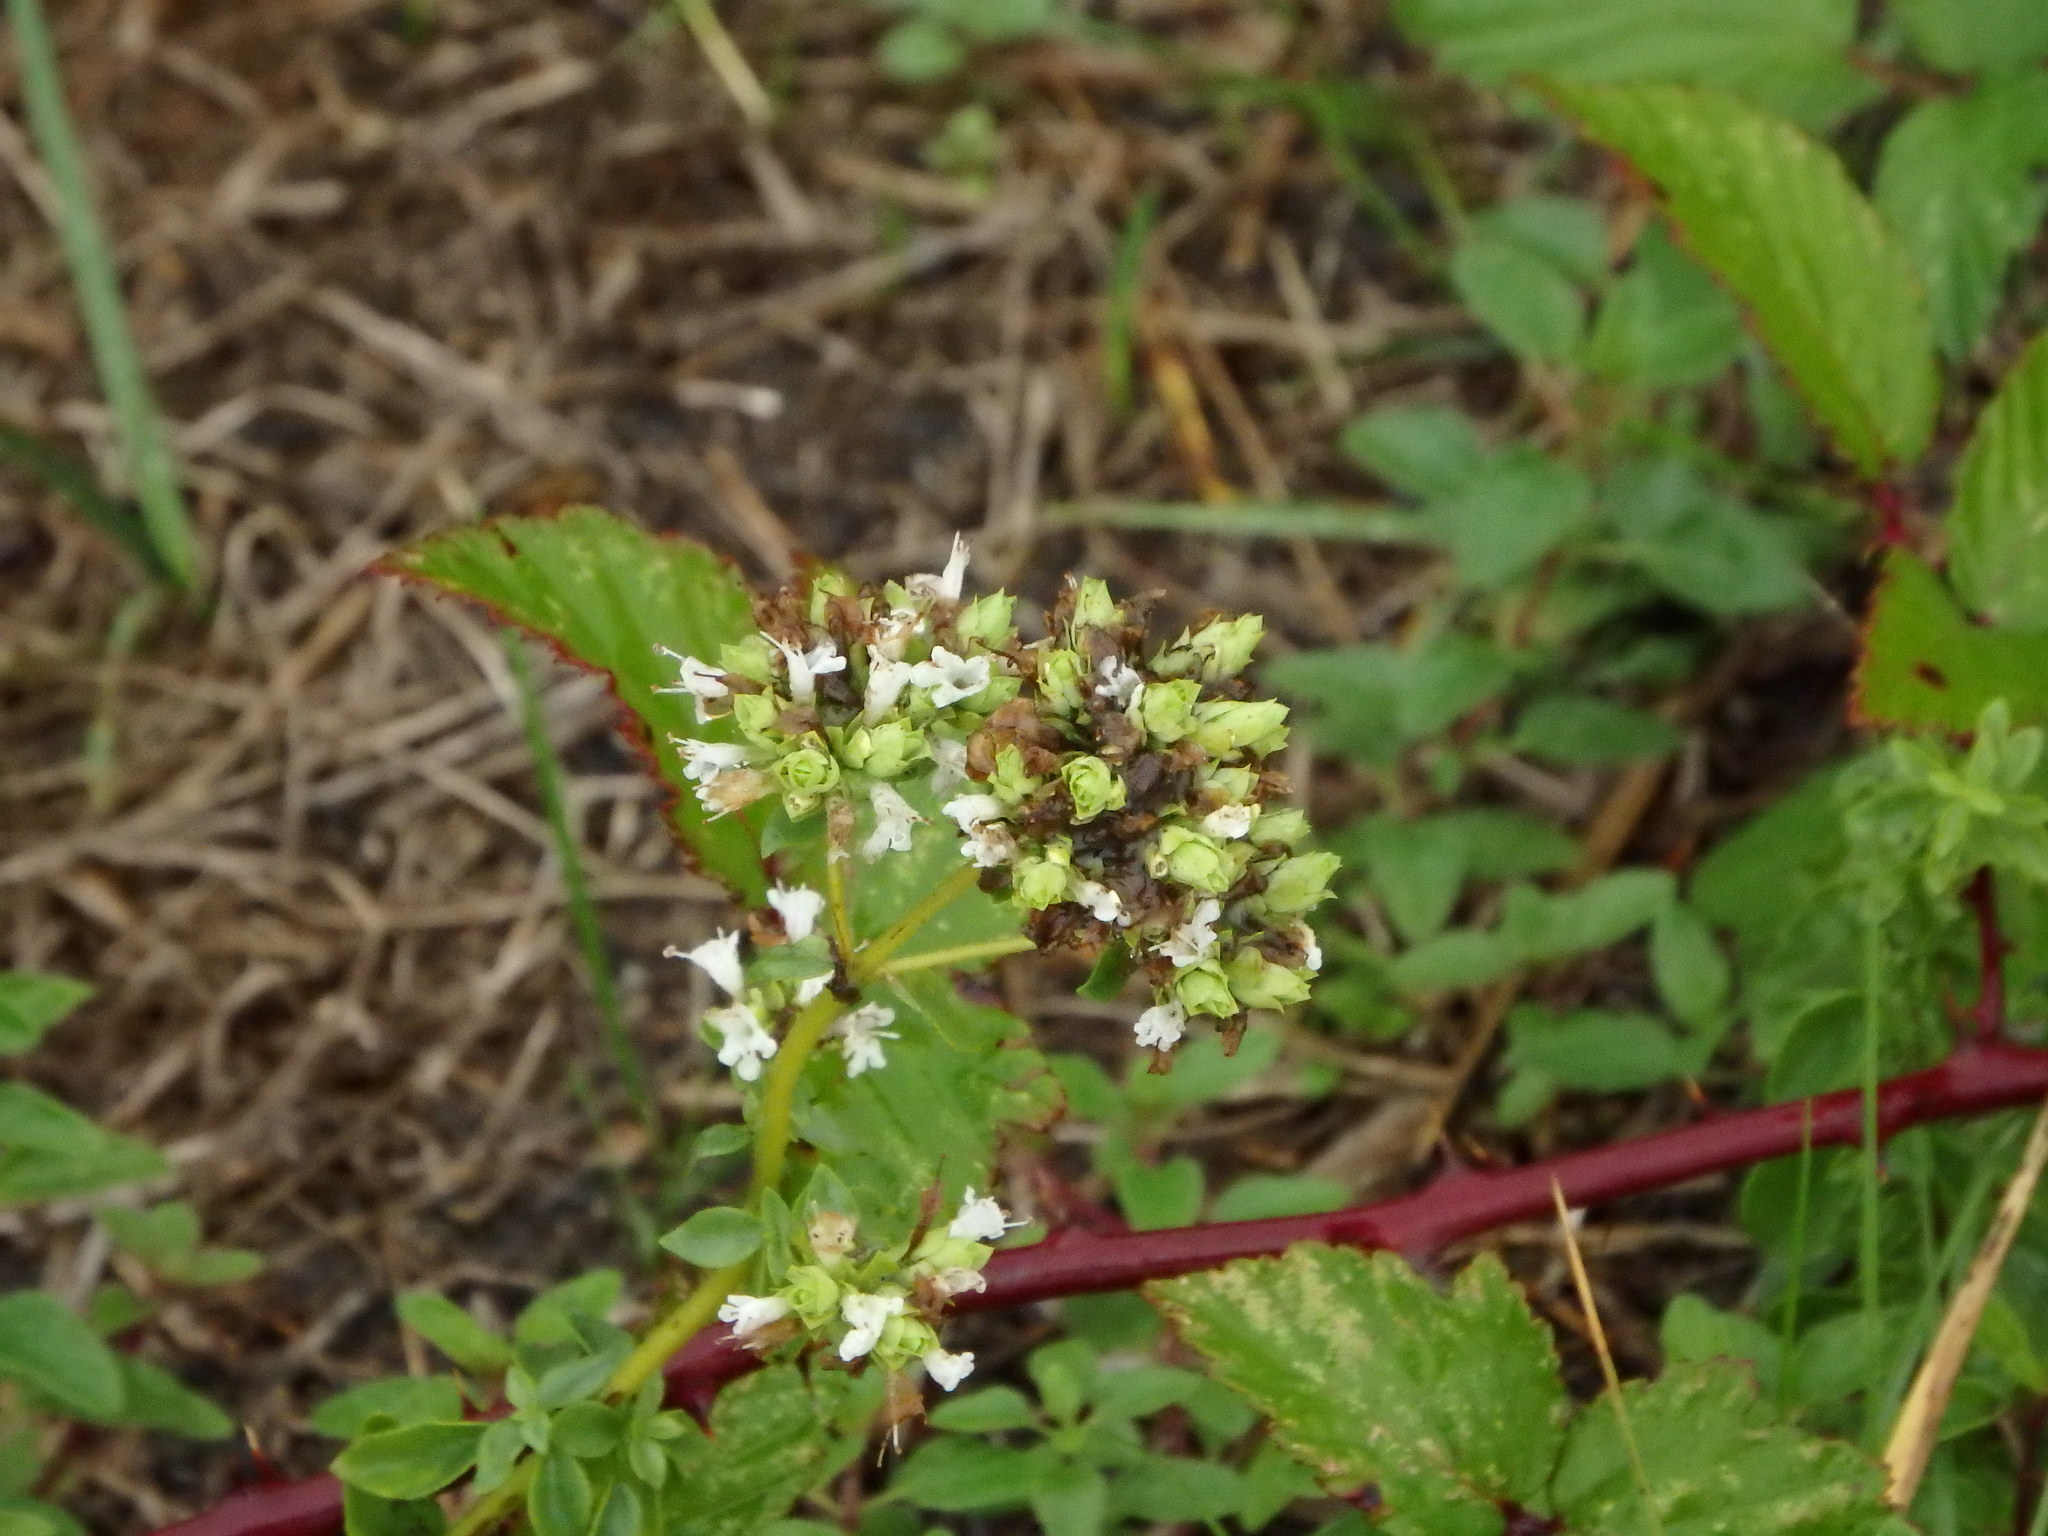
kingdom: Plantae
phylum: Tracheophyta
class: Magnoliopsida
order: Lamiales
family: Lamiaceae
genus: Origanum
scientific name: Origanum vulgare
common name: Wild marjoram
